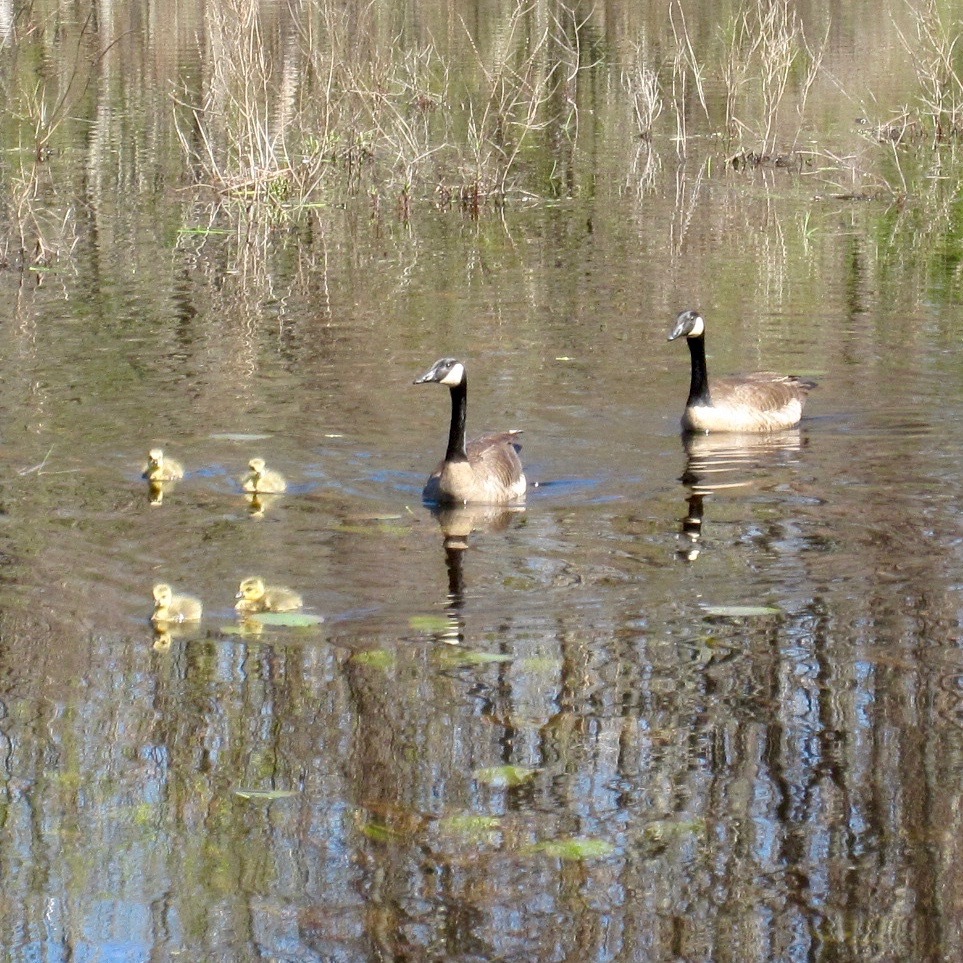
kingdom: Animalia
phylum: Chordata
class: Aves
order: Anseriformes
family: Anatidae
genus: Branta
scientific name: Branta canadensis
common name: Canada goose
